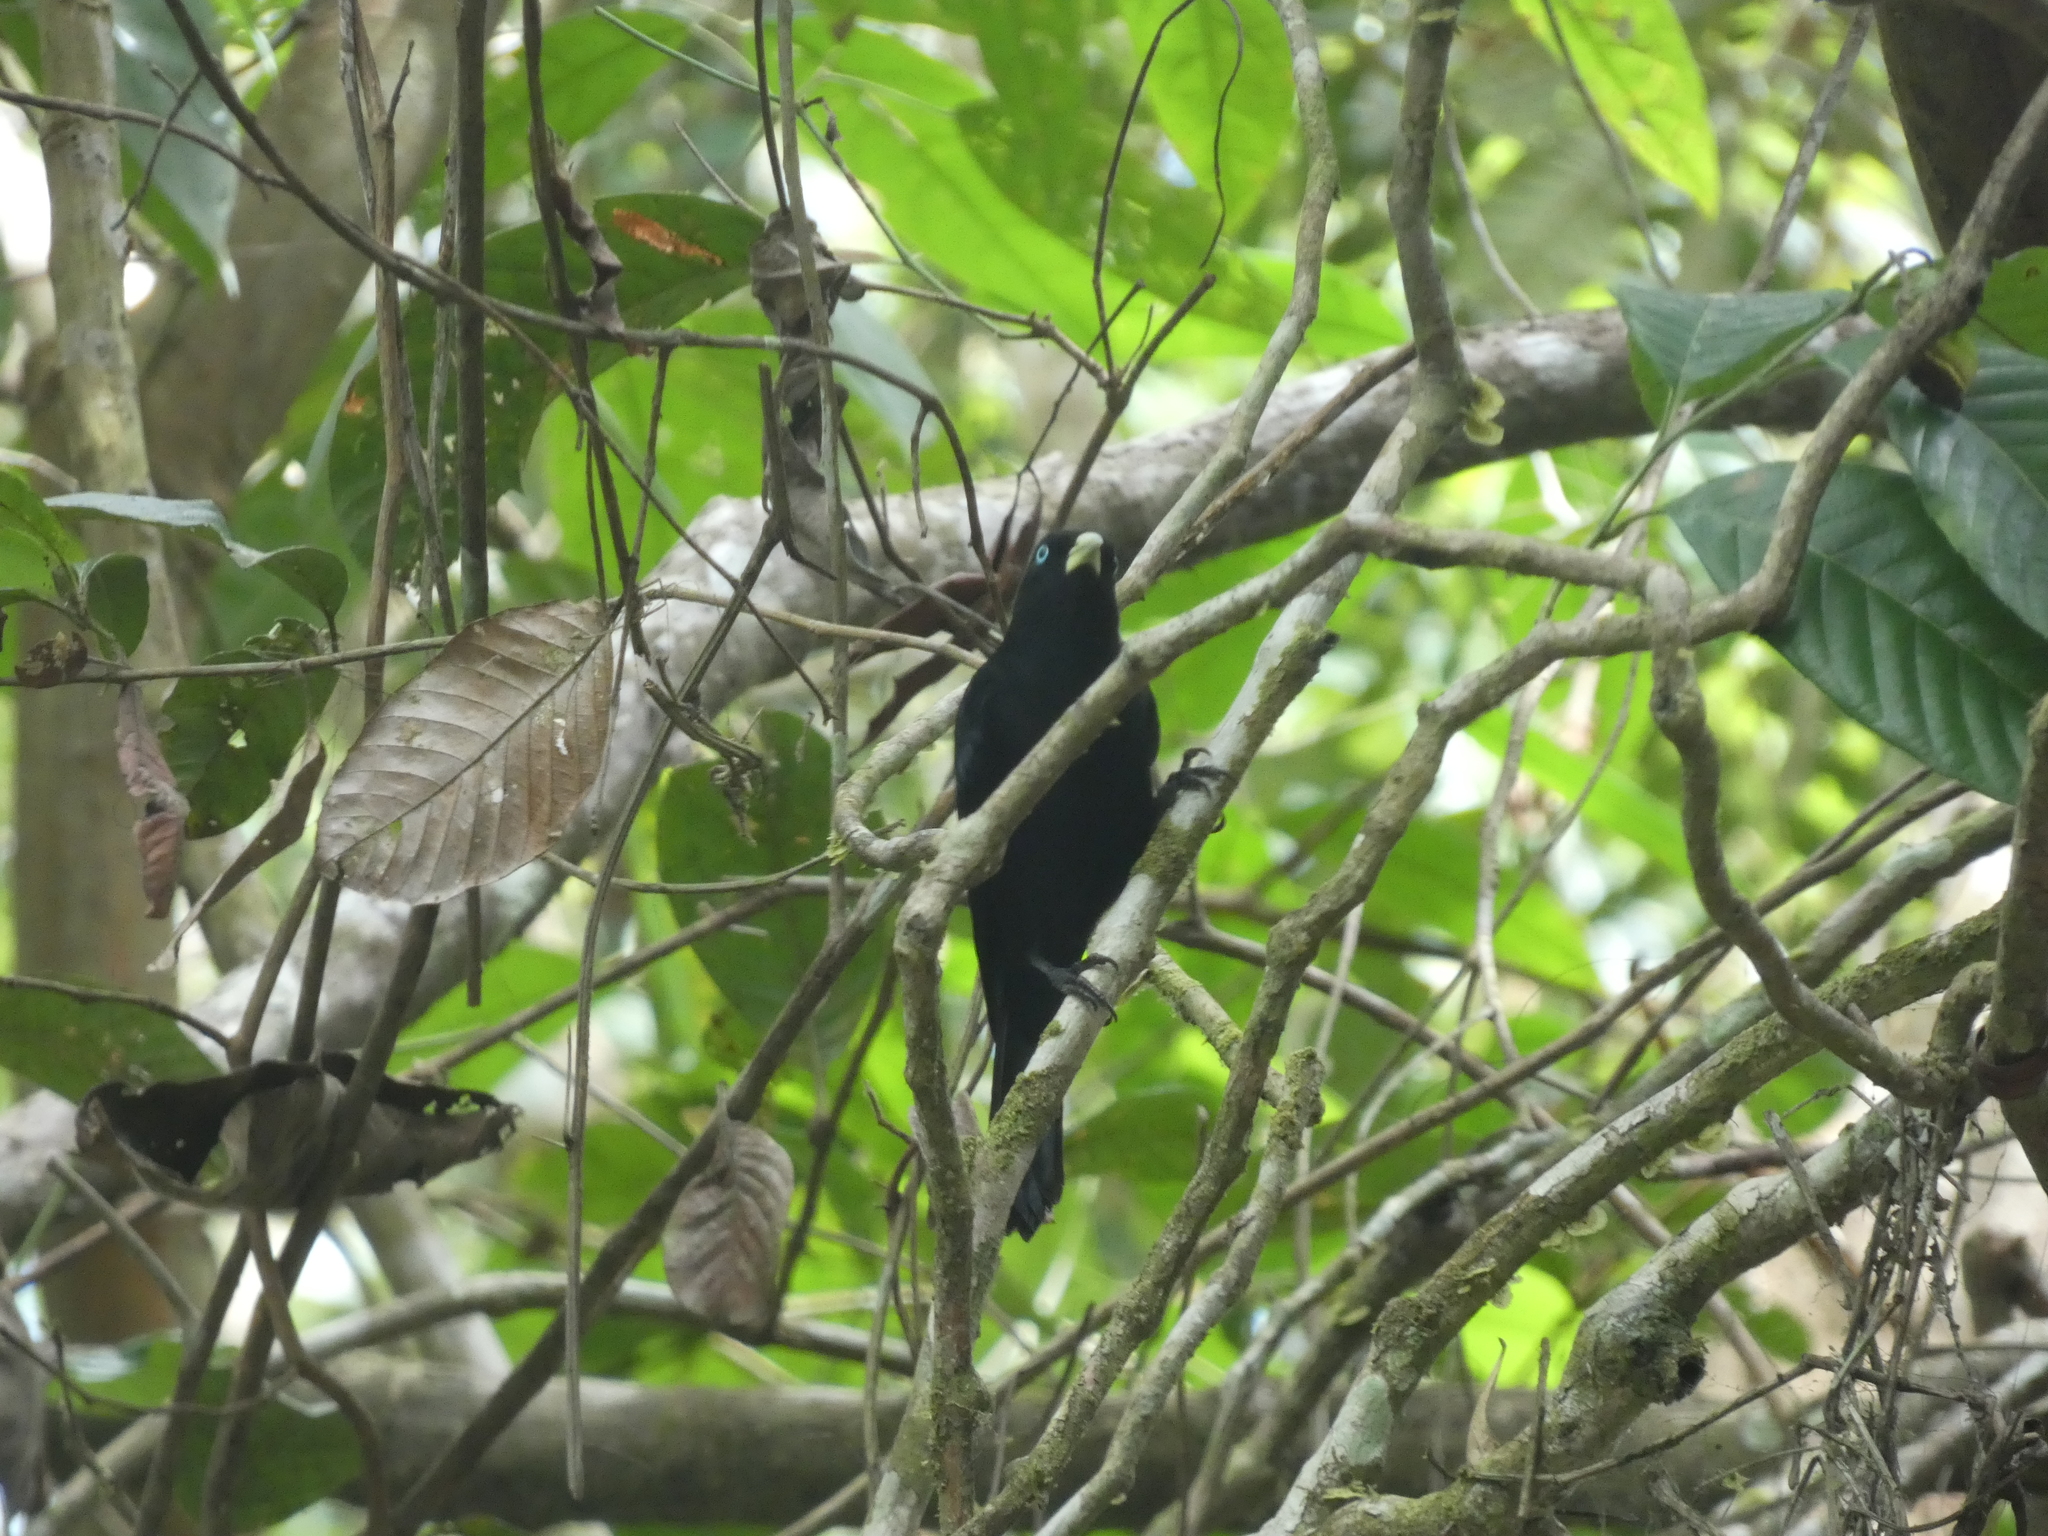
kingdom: Animalia
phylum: Chordata
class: Aves
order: Passeriformes
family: Icteridae
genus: Cacicus
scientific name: Cacicus uropygialis
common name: Scarlet-rumped cacique
